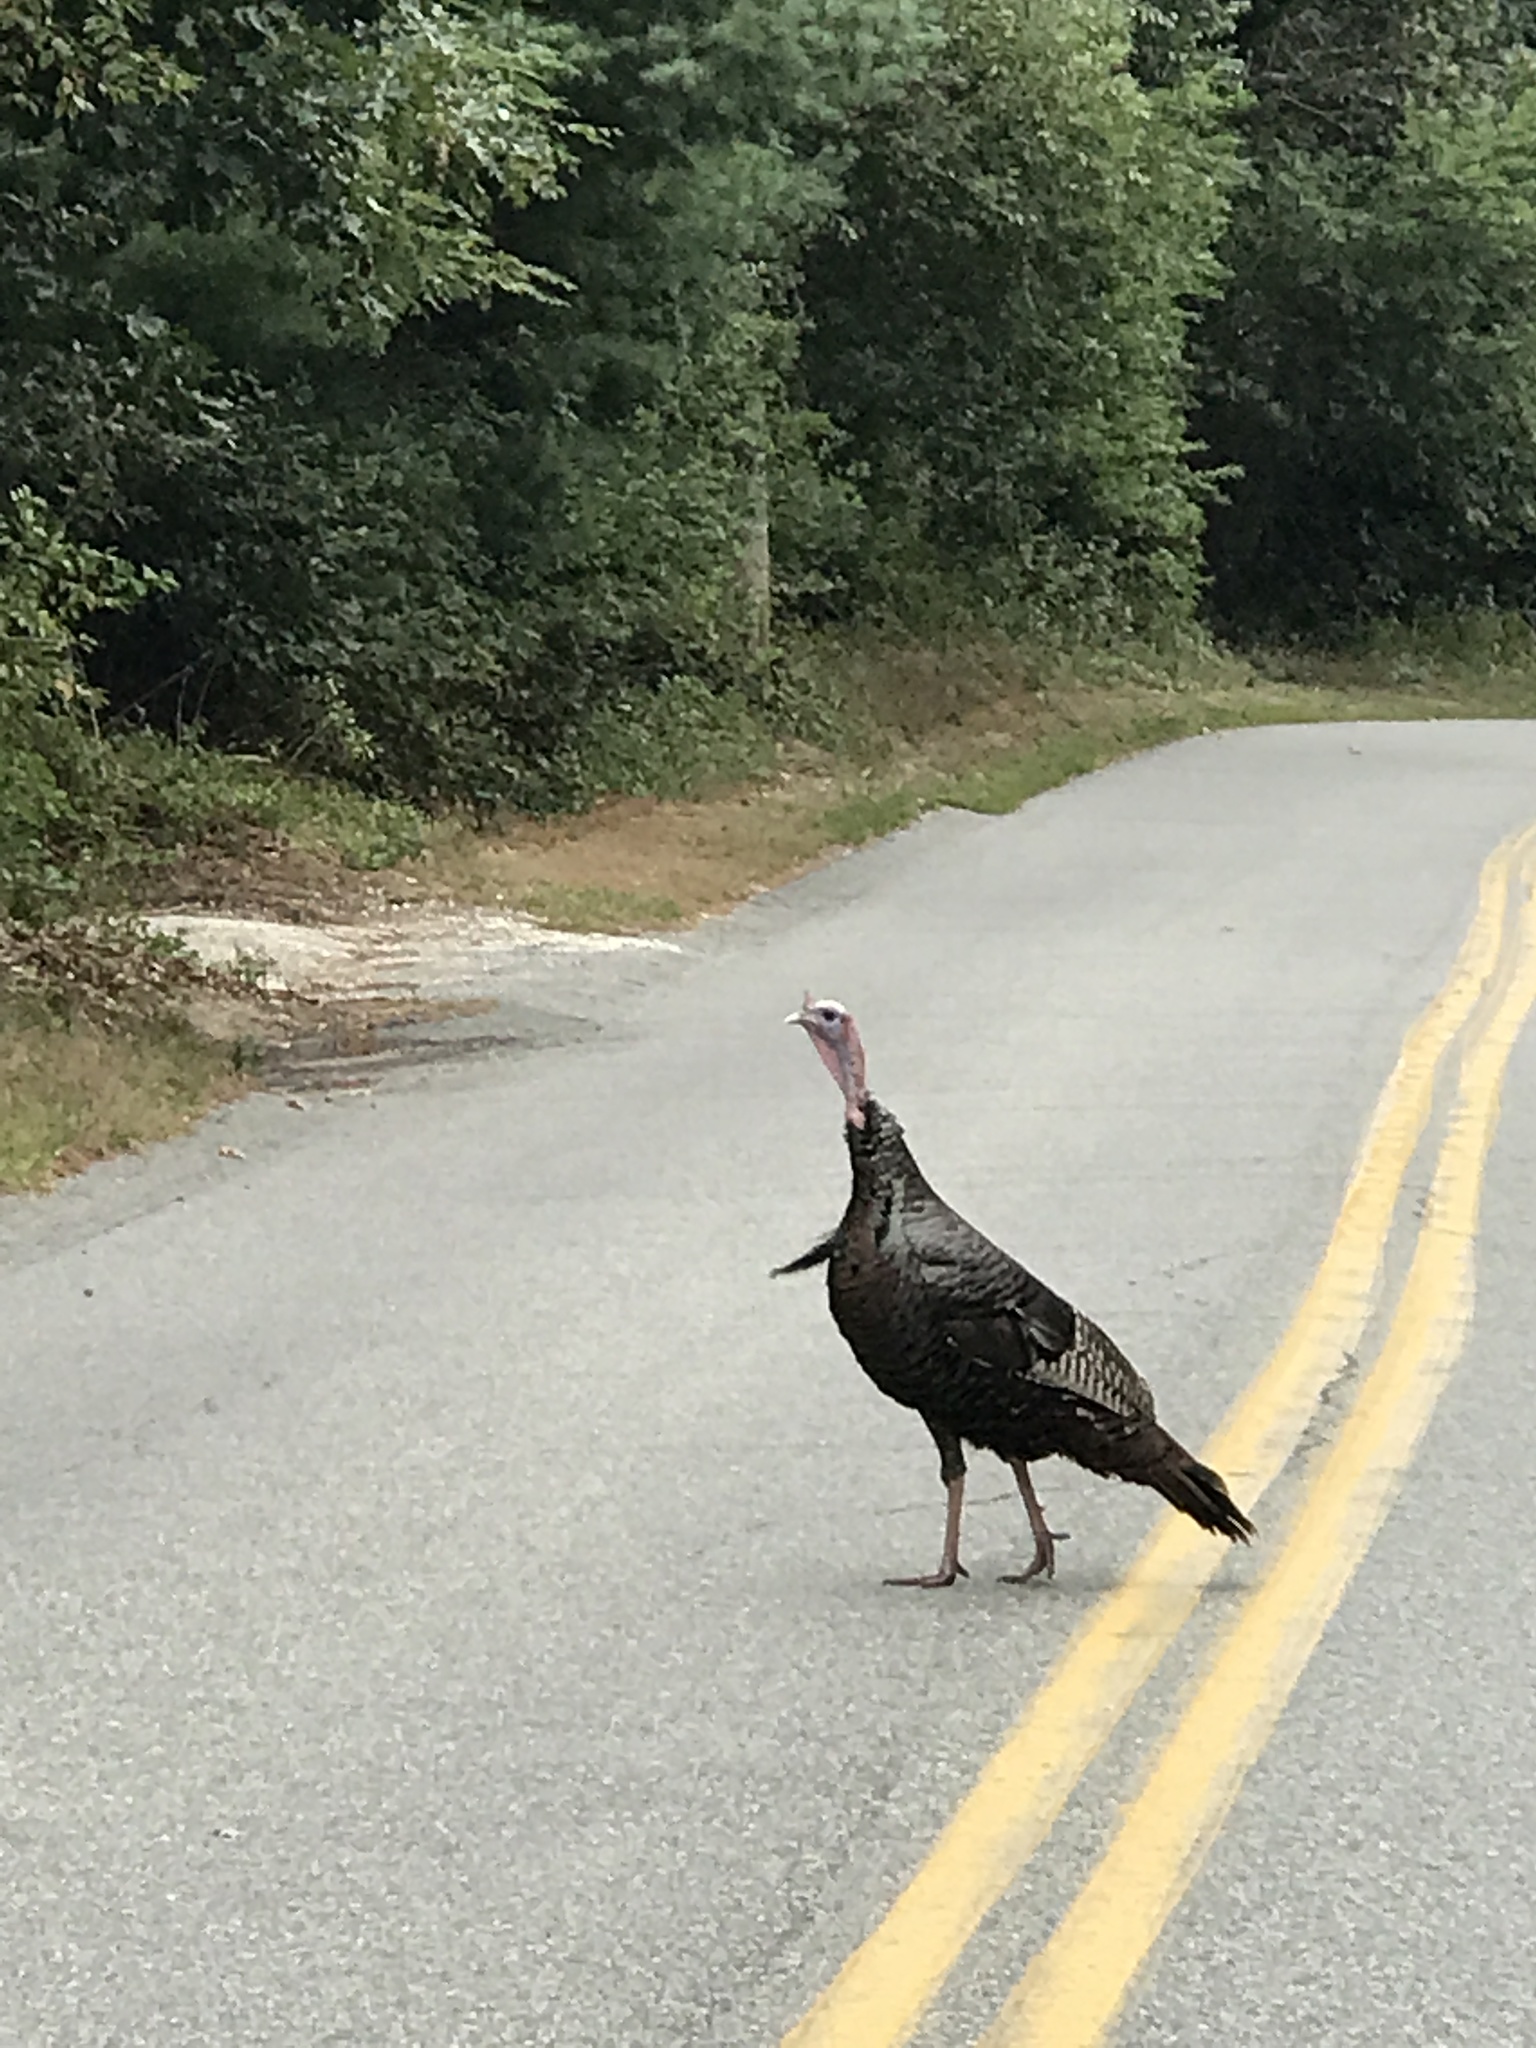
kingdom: Animalia
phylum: Chordata
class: Aves
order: Galliformes
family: Phasianidae
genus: Meleagris
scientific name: Meleagris gallopavo
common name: Wild turkey
